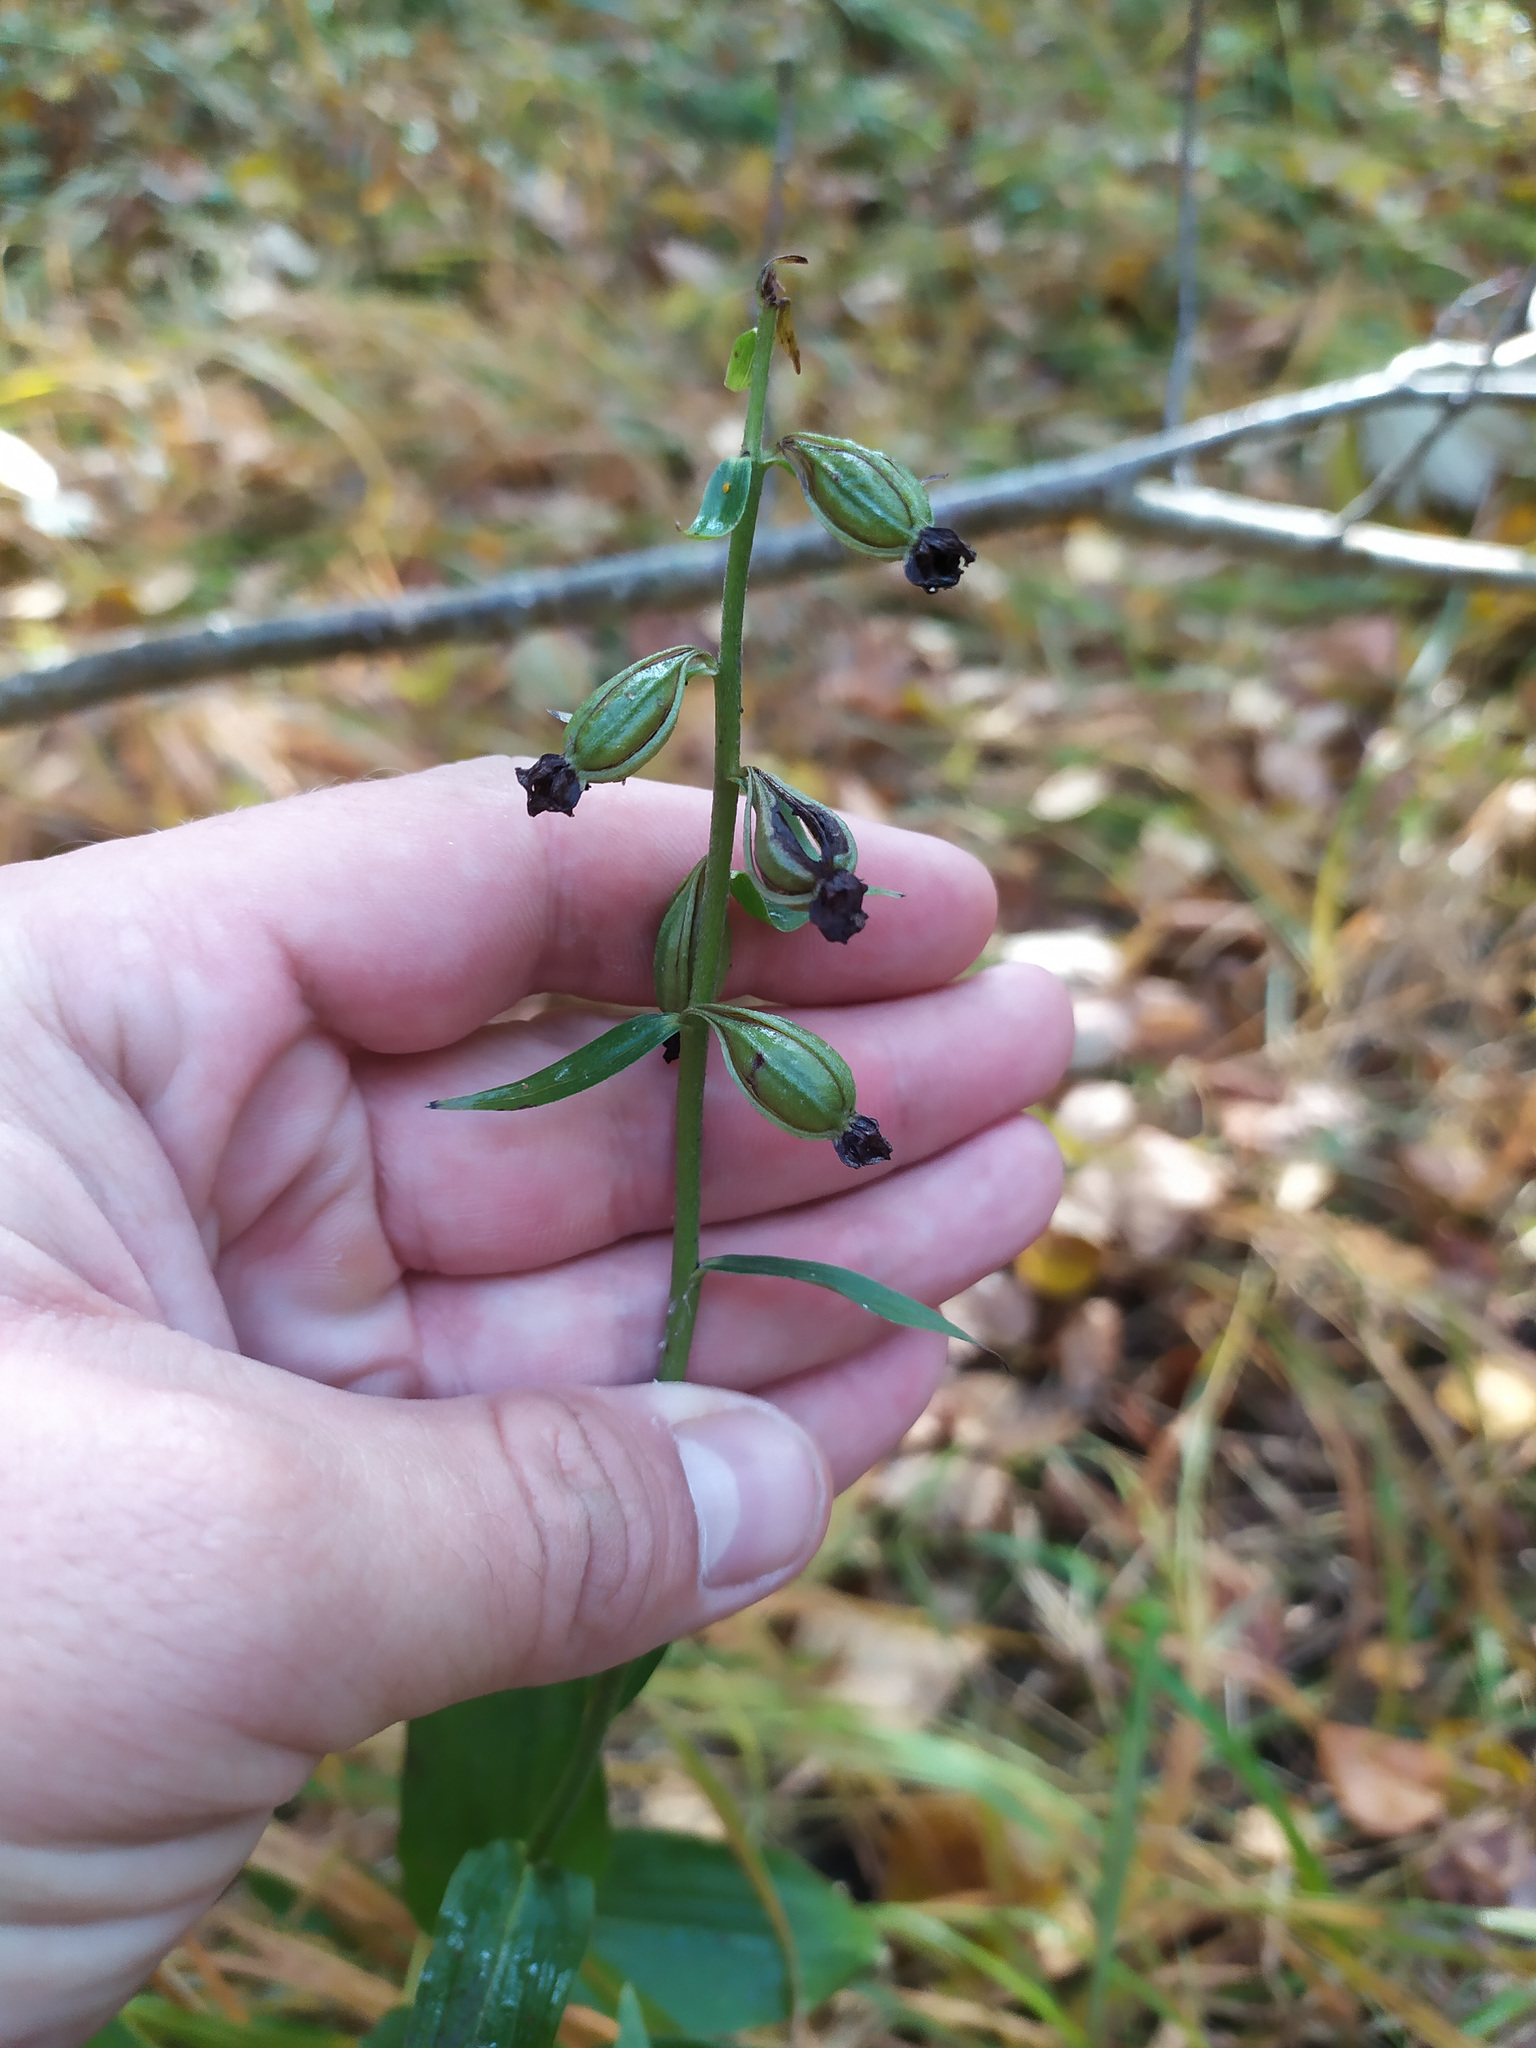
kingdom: Plantae
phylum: Tracheophyta
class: Liliopsida
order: Asparagales
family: Orchidaceae
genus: Epipactis
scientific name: Epipactis helleborine
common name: Broad-leaved helleborine
